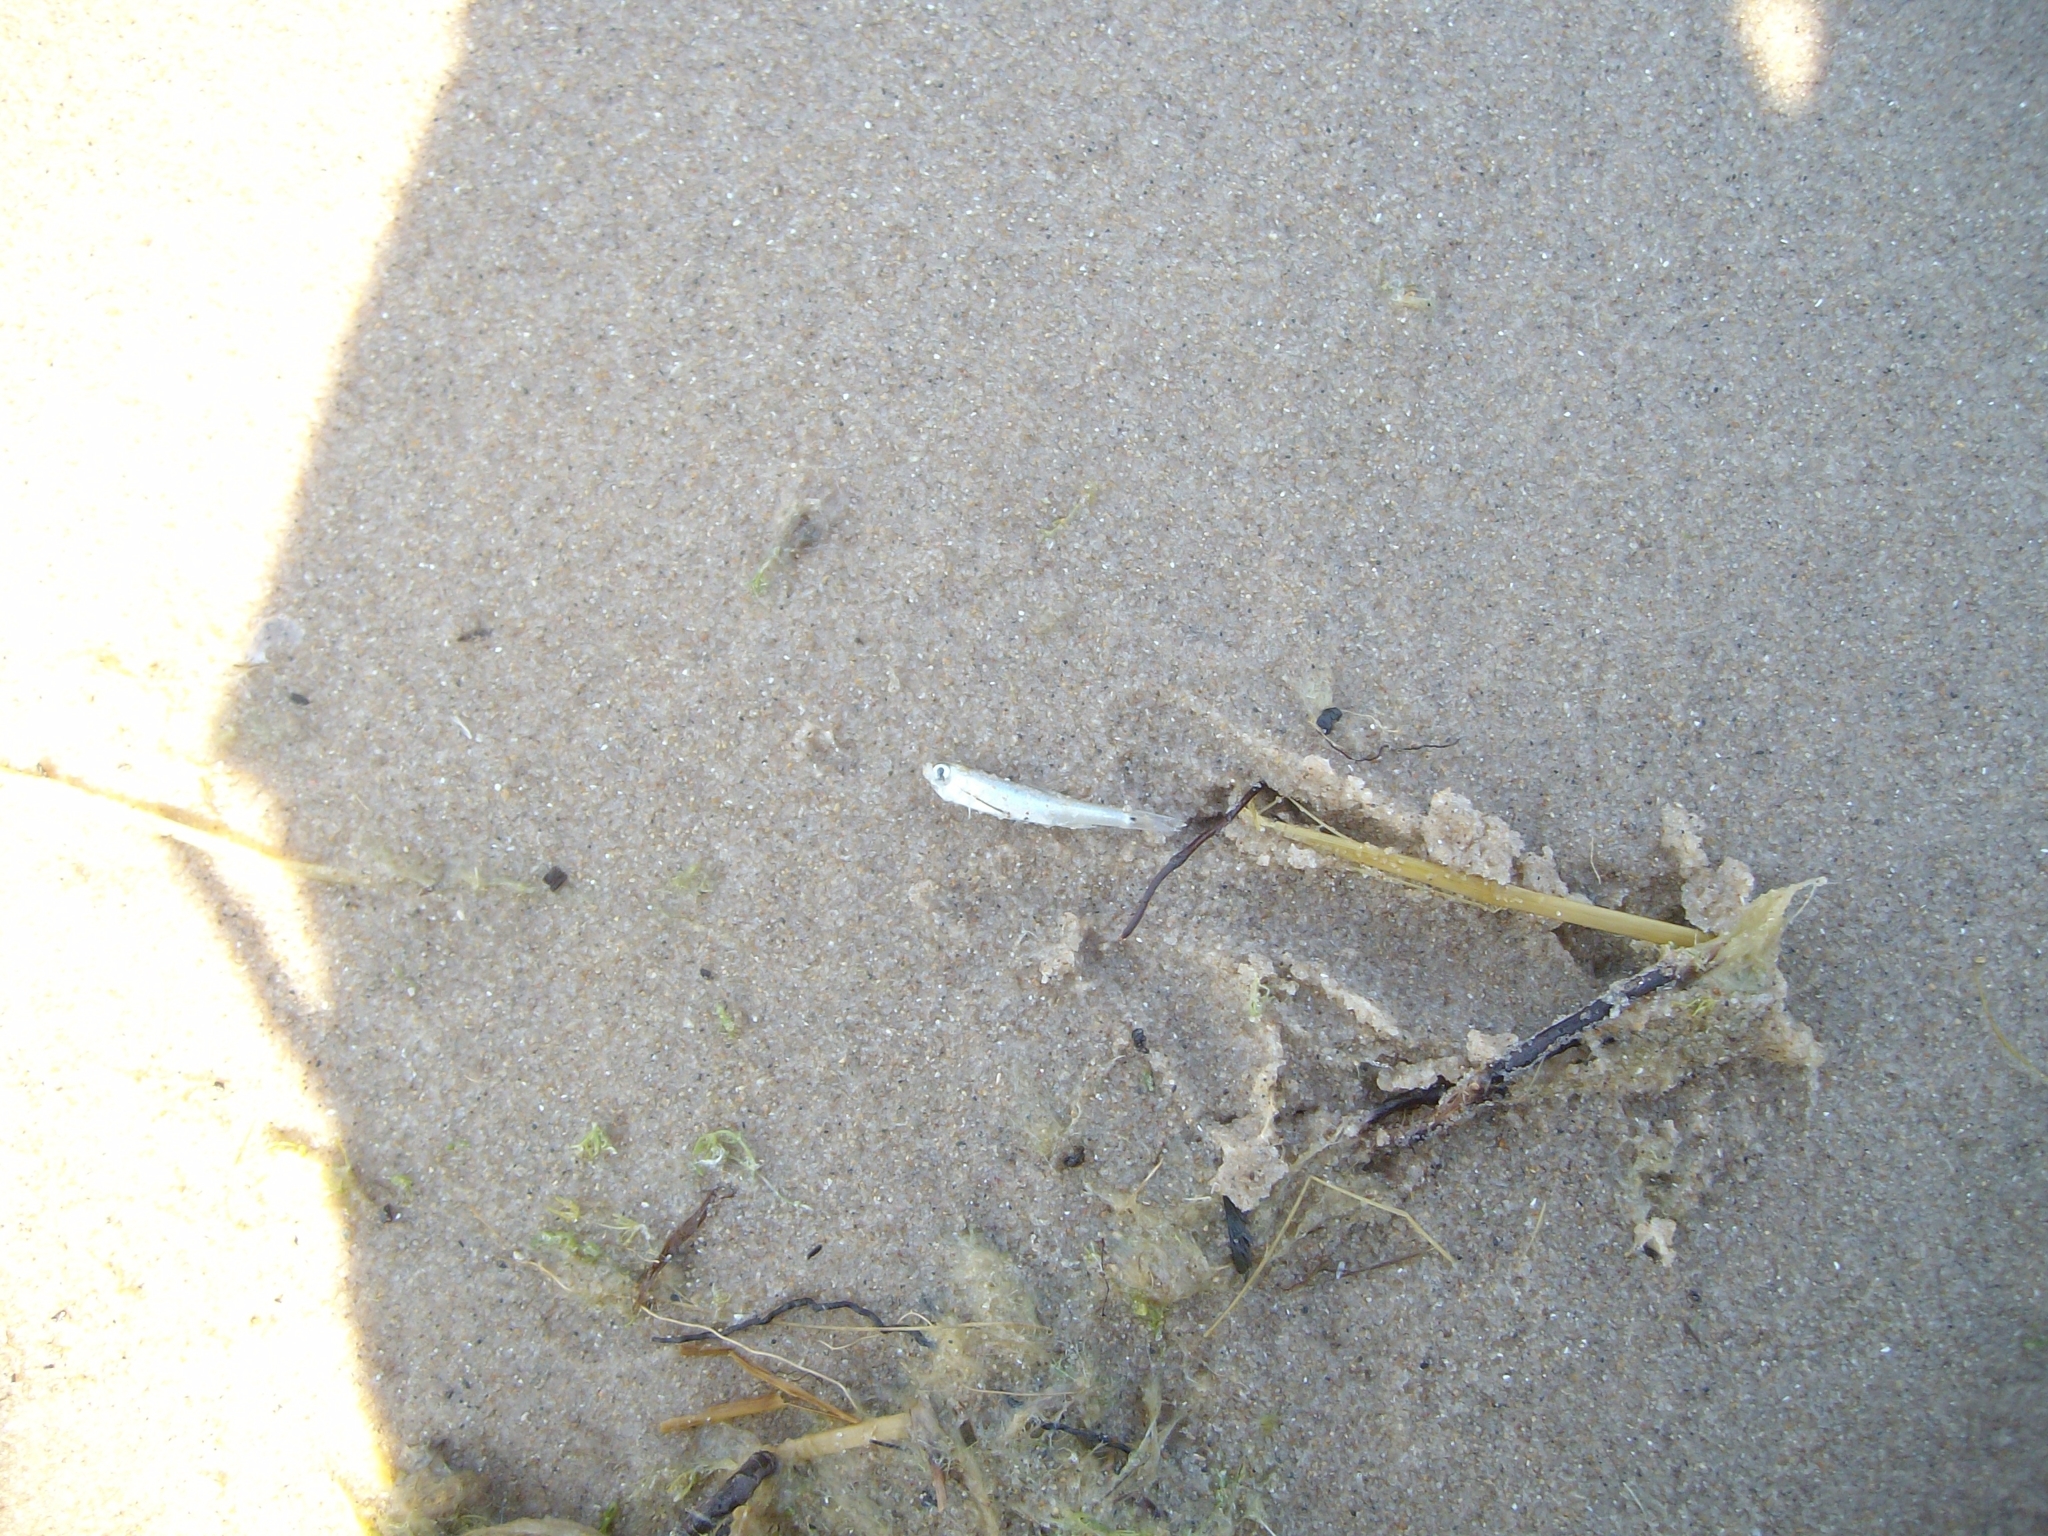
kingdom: Animalia
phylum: Chordata
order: Cypriniformes
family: Cyprinidae
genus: Notropis
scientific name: Notropis
